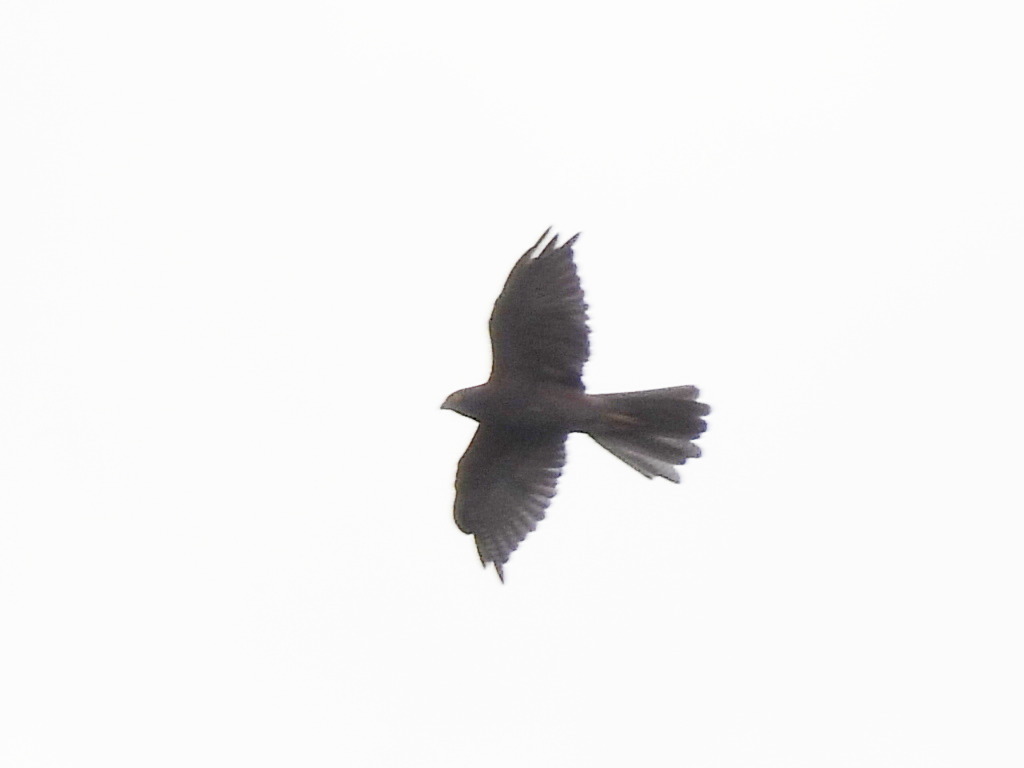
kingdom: Animalia
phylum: Chordata
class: Aves
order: Accipitriformes
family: Accipitridae
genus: Accipiter
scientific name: Accipiter fasciatus
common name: Brown goshawk
